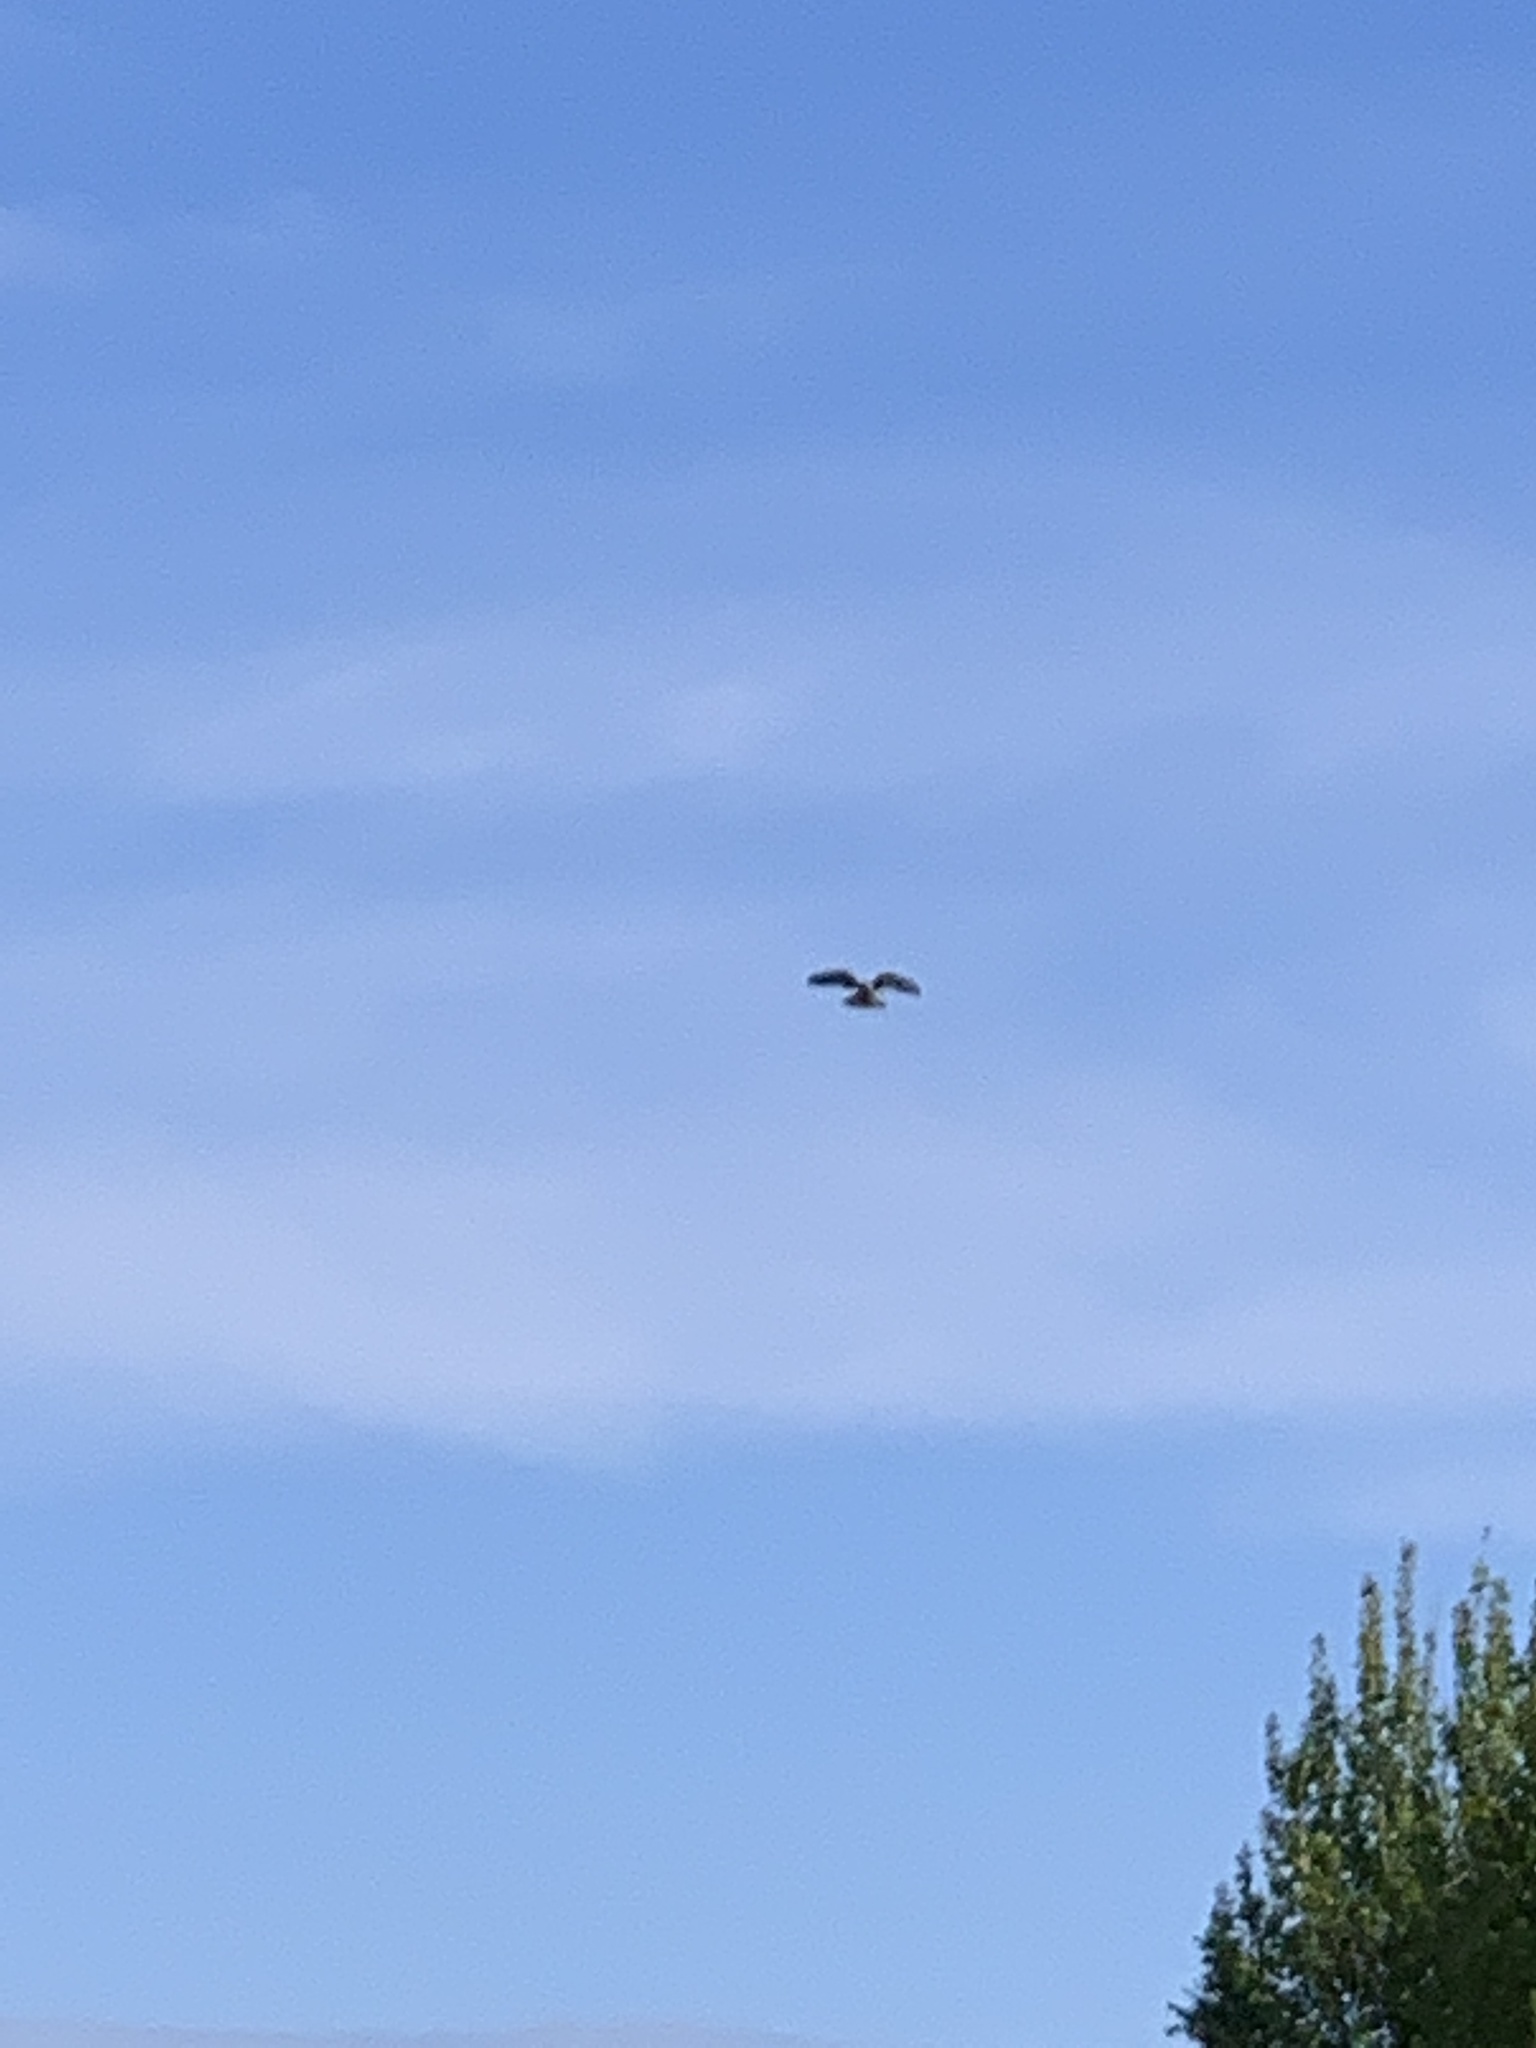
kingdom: Animalia
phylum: Chordata
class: Aves
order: Falconiformes
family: Falconidae
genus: Falco
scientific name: Falco tinnunculus
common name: Common kestrel
